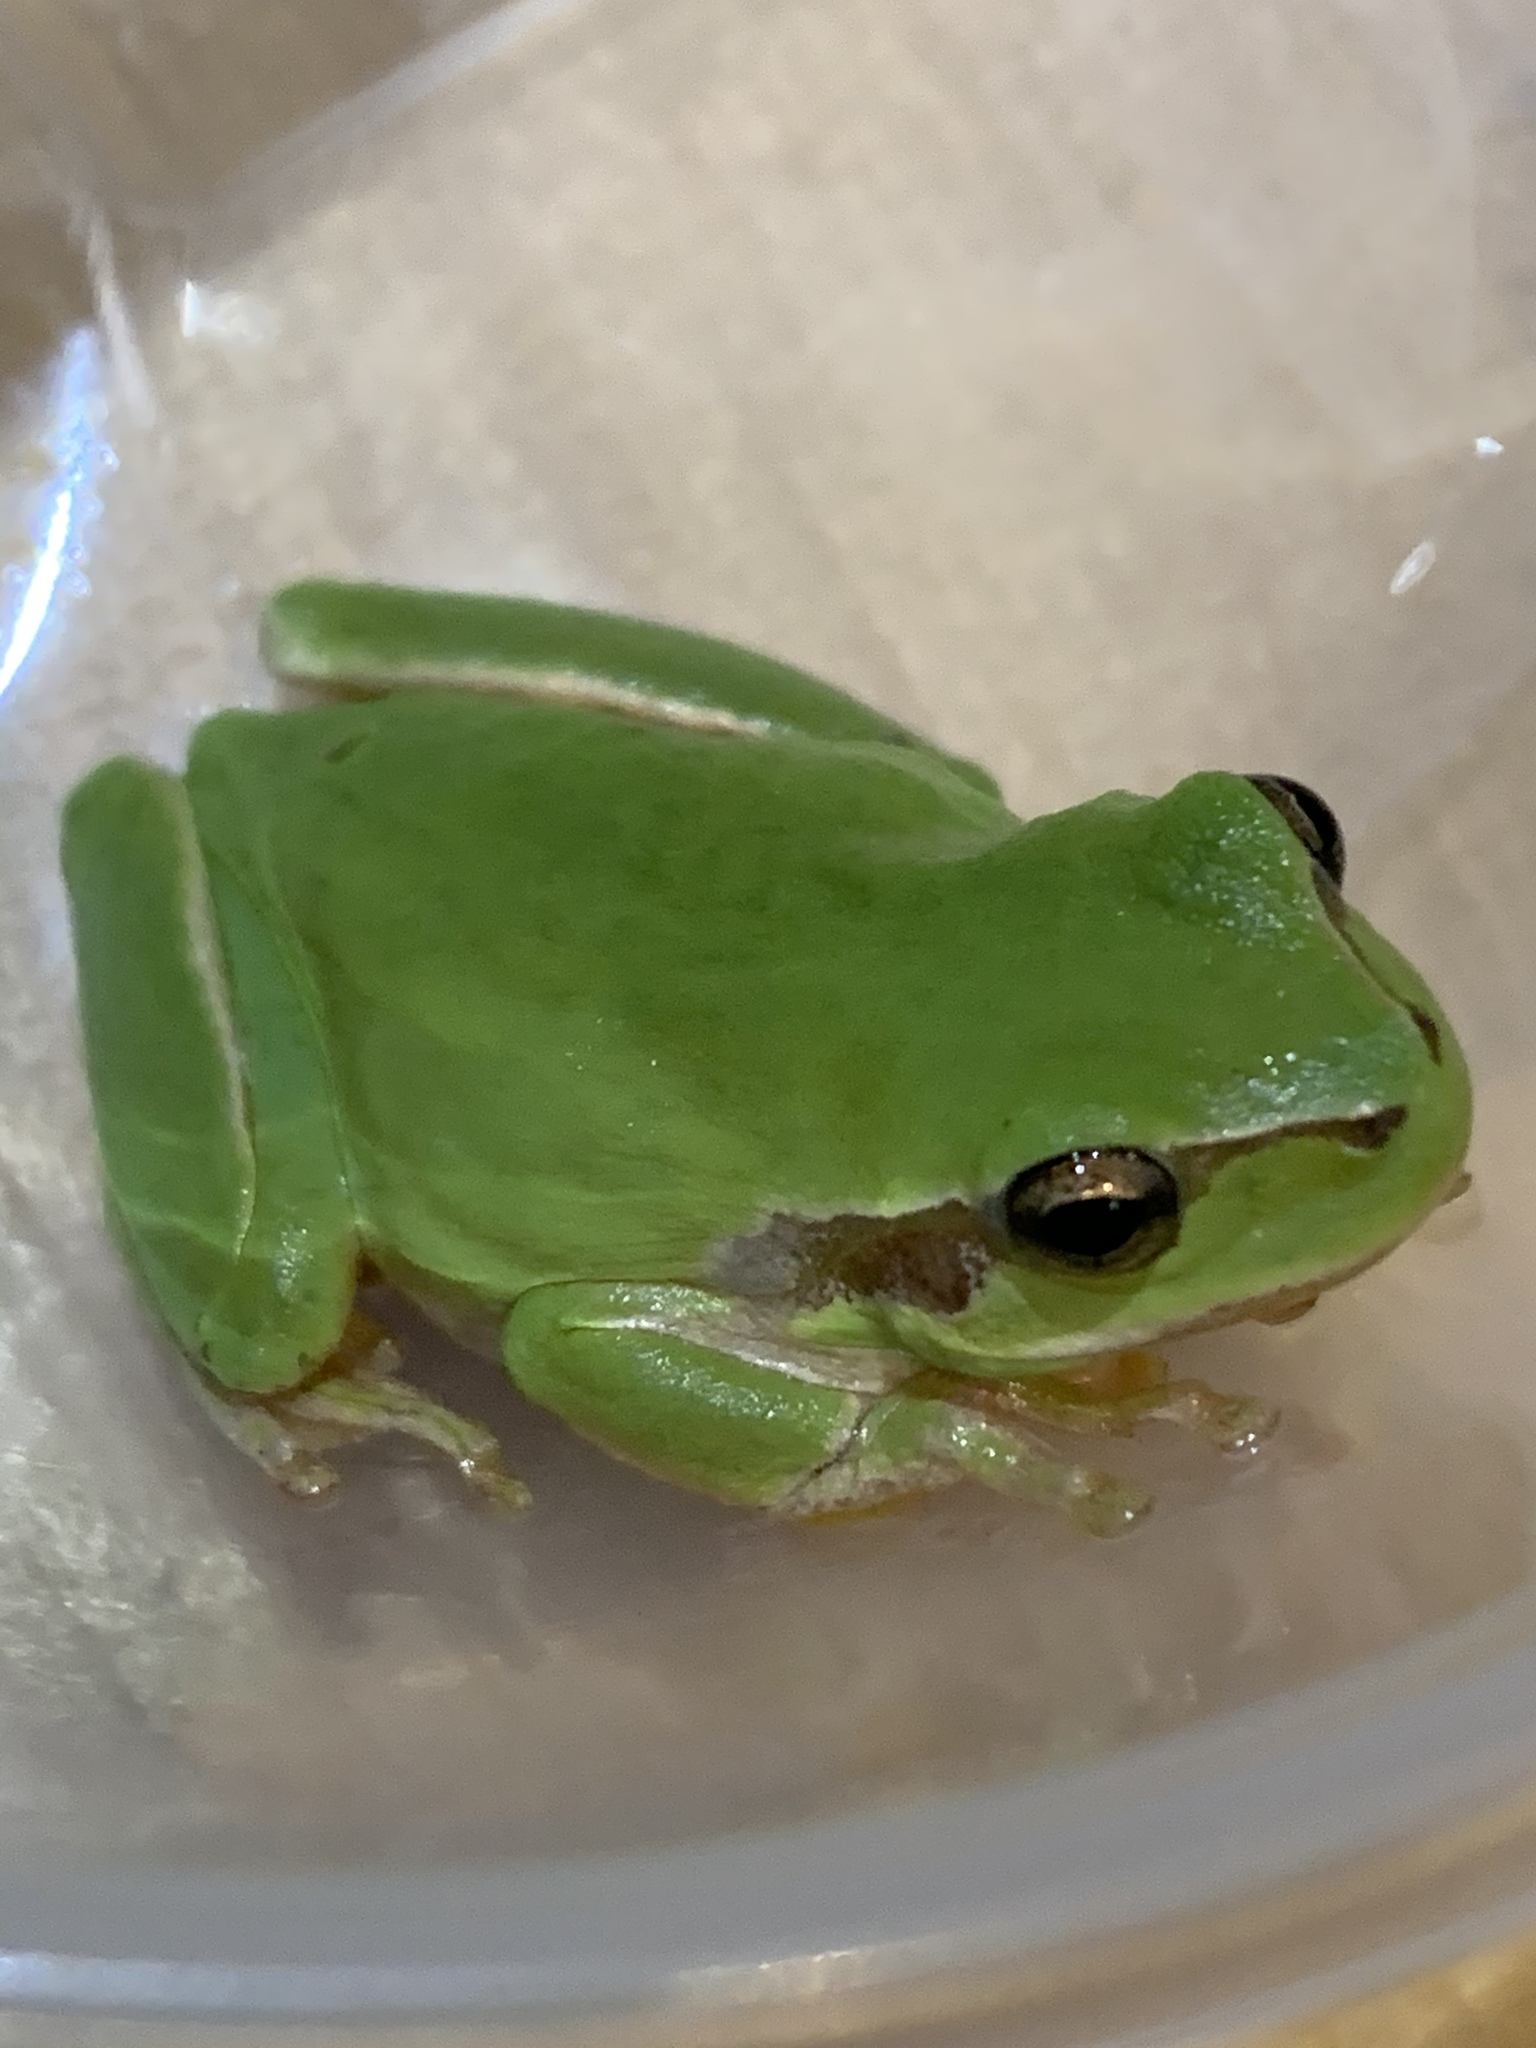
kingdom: Animalia
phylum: Chordata
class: Amphibia
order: Anura
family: Hylidae
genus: Hyla
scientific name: Hyla meridionalis
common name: Stripeless tree frog
